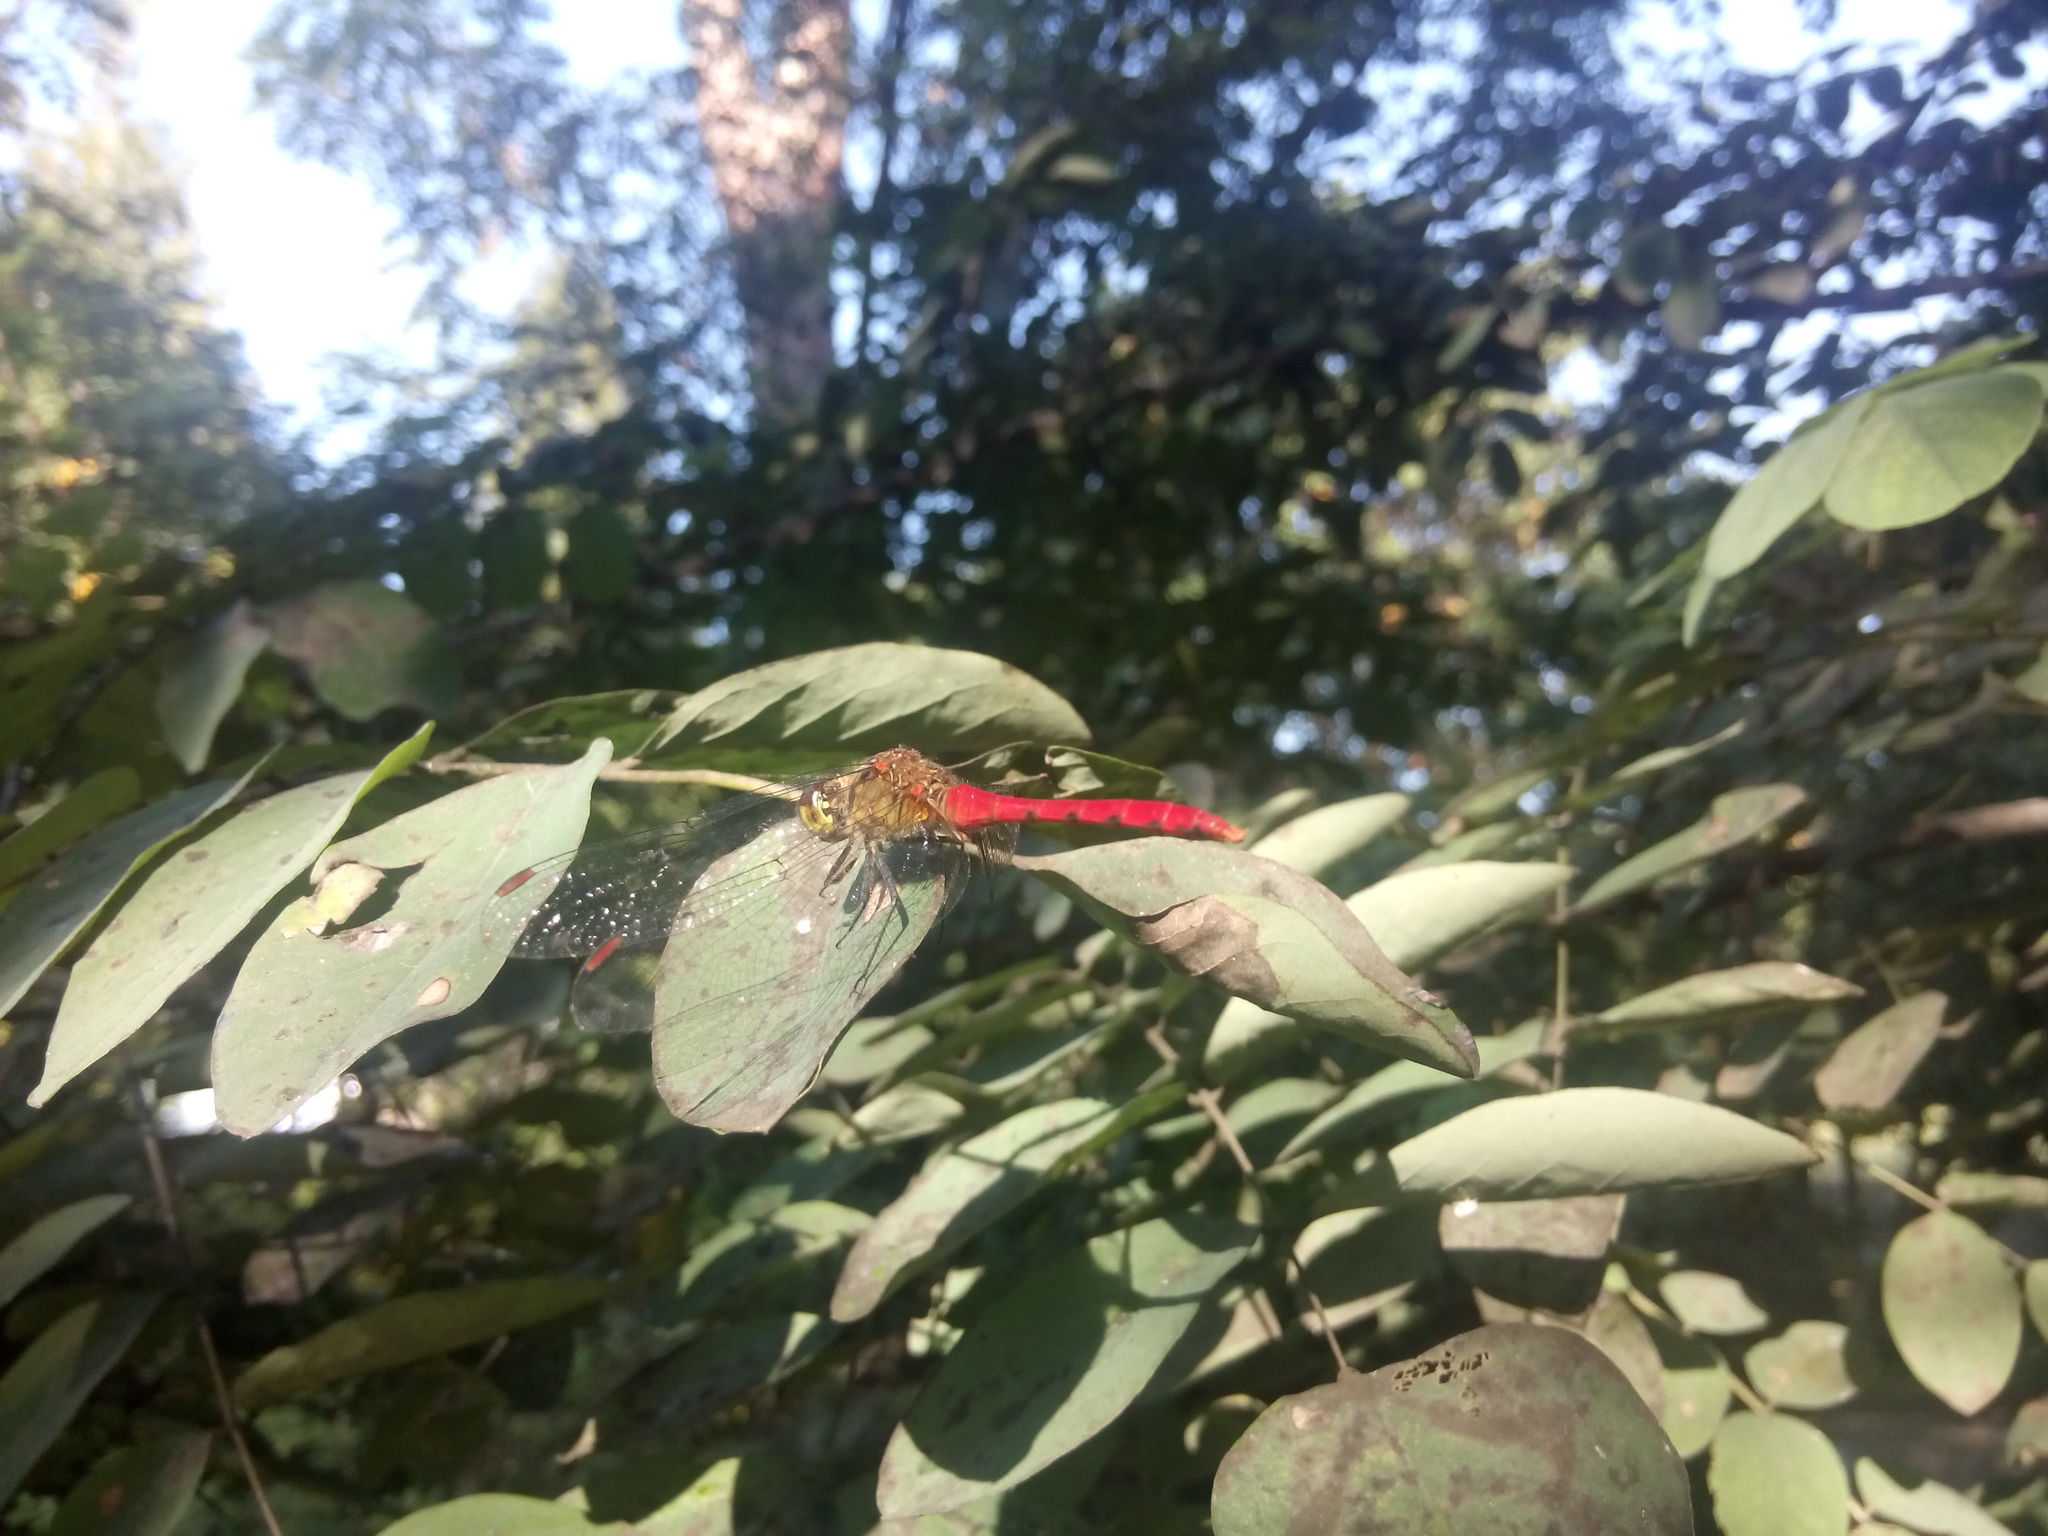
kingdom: Animalia
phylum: Arthropoda
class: Insecta
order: Odonata
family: Libellulidae
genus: Sympetrum
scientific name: Sympetrum eroticum
